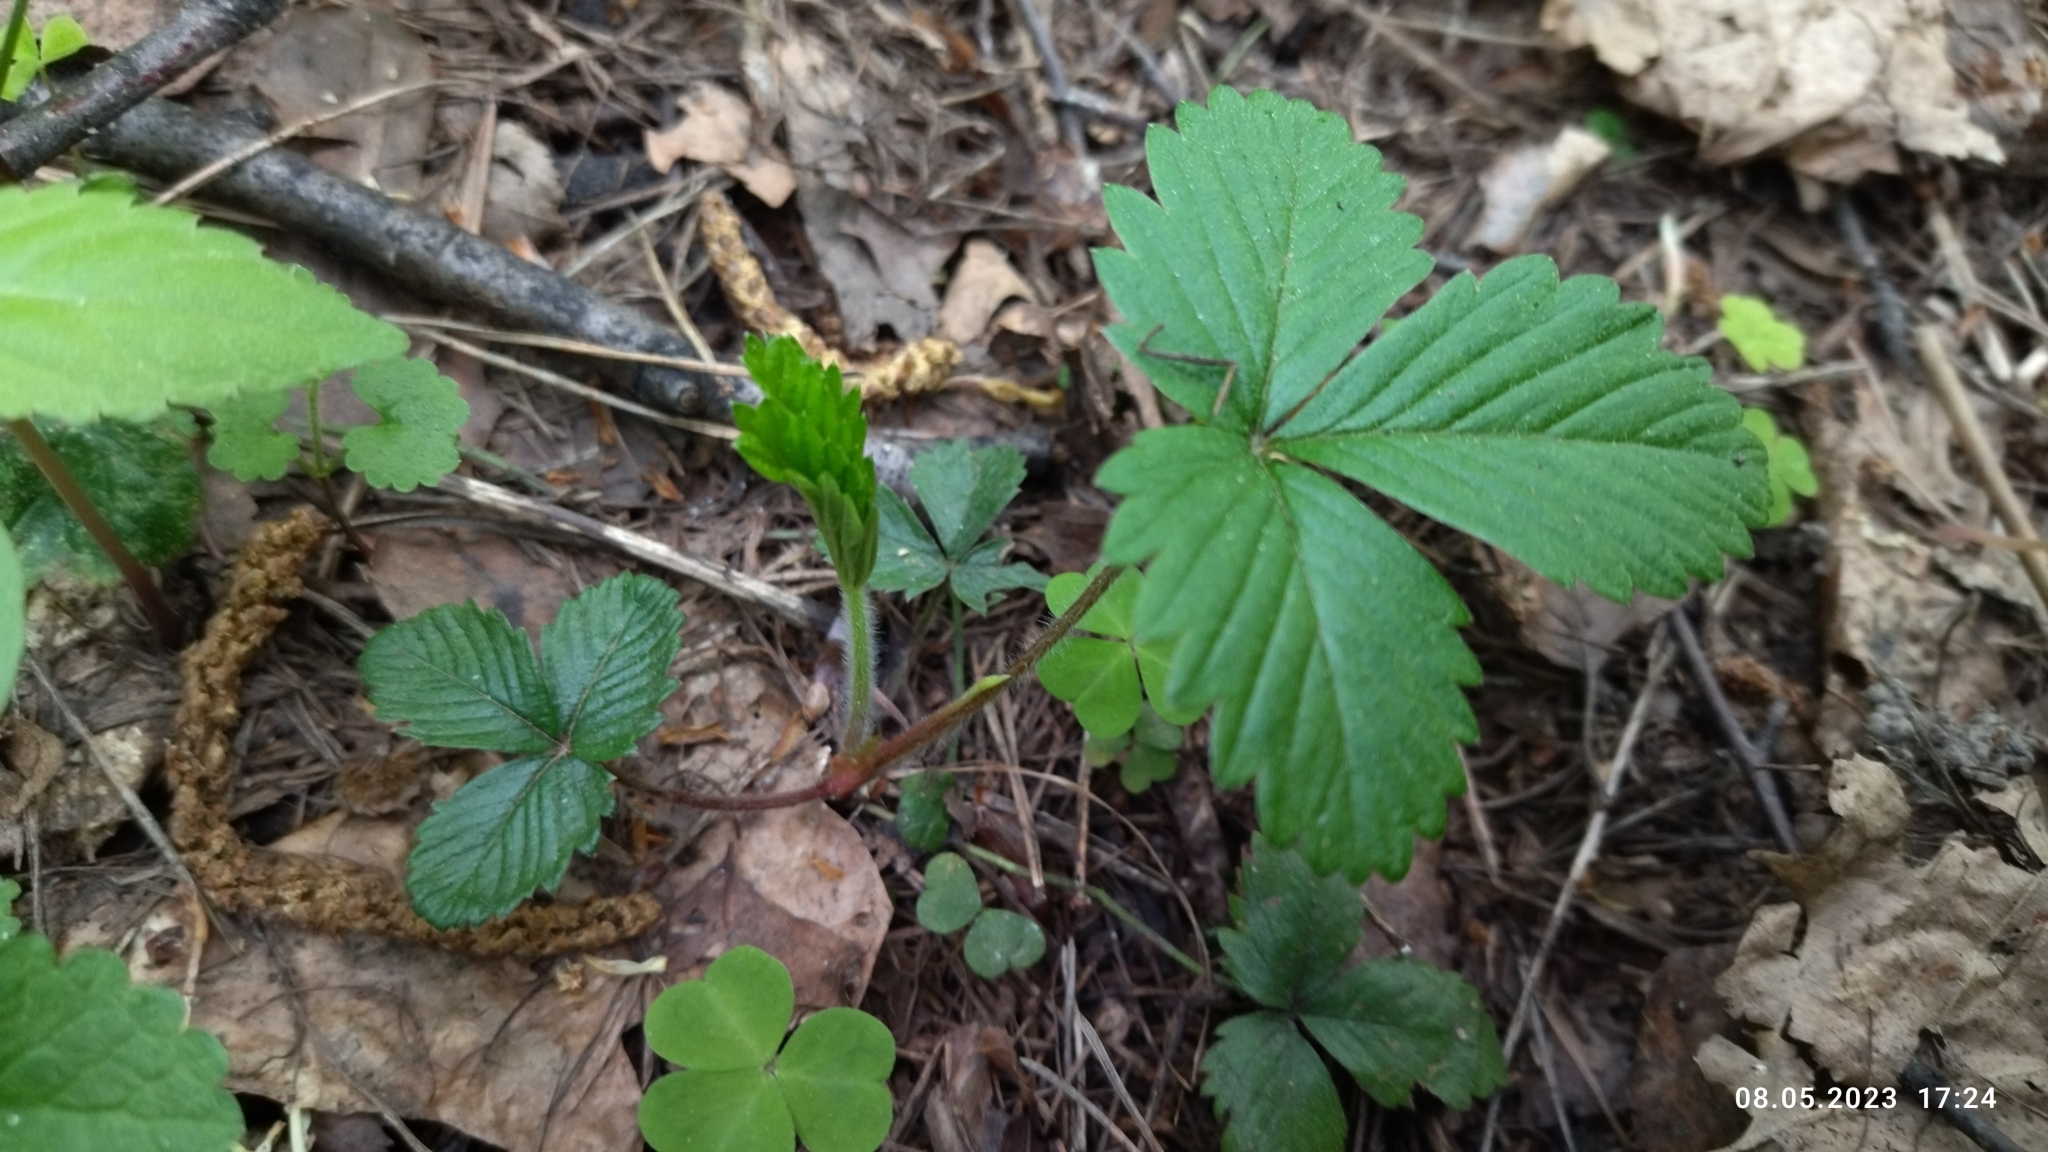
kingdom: Plantae
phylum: Tracheophyta
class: Magnoliopsida
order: Rosales
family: Rosaceae
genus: Fragaria
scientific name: Fragaria vesca
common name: Wild strawberry
